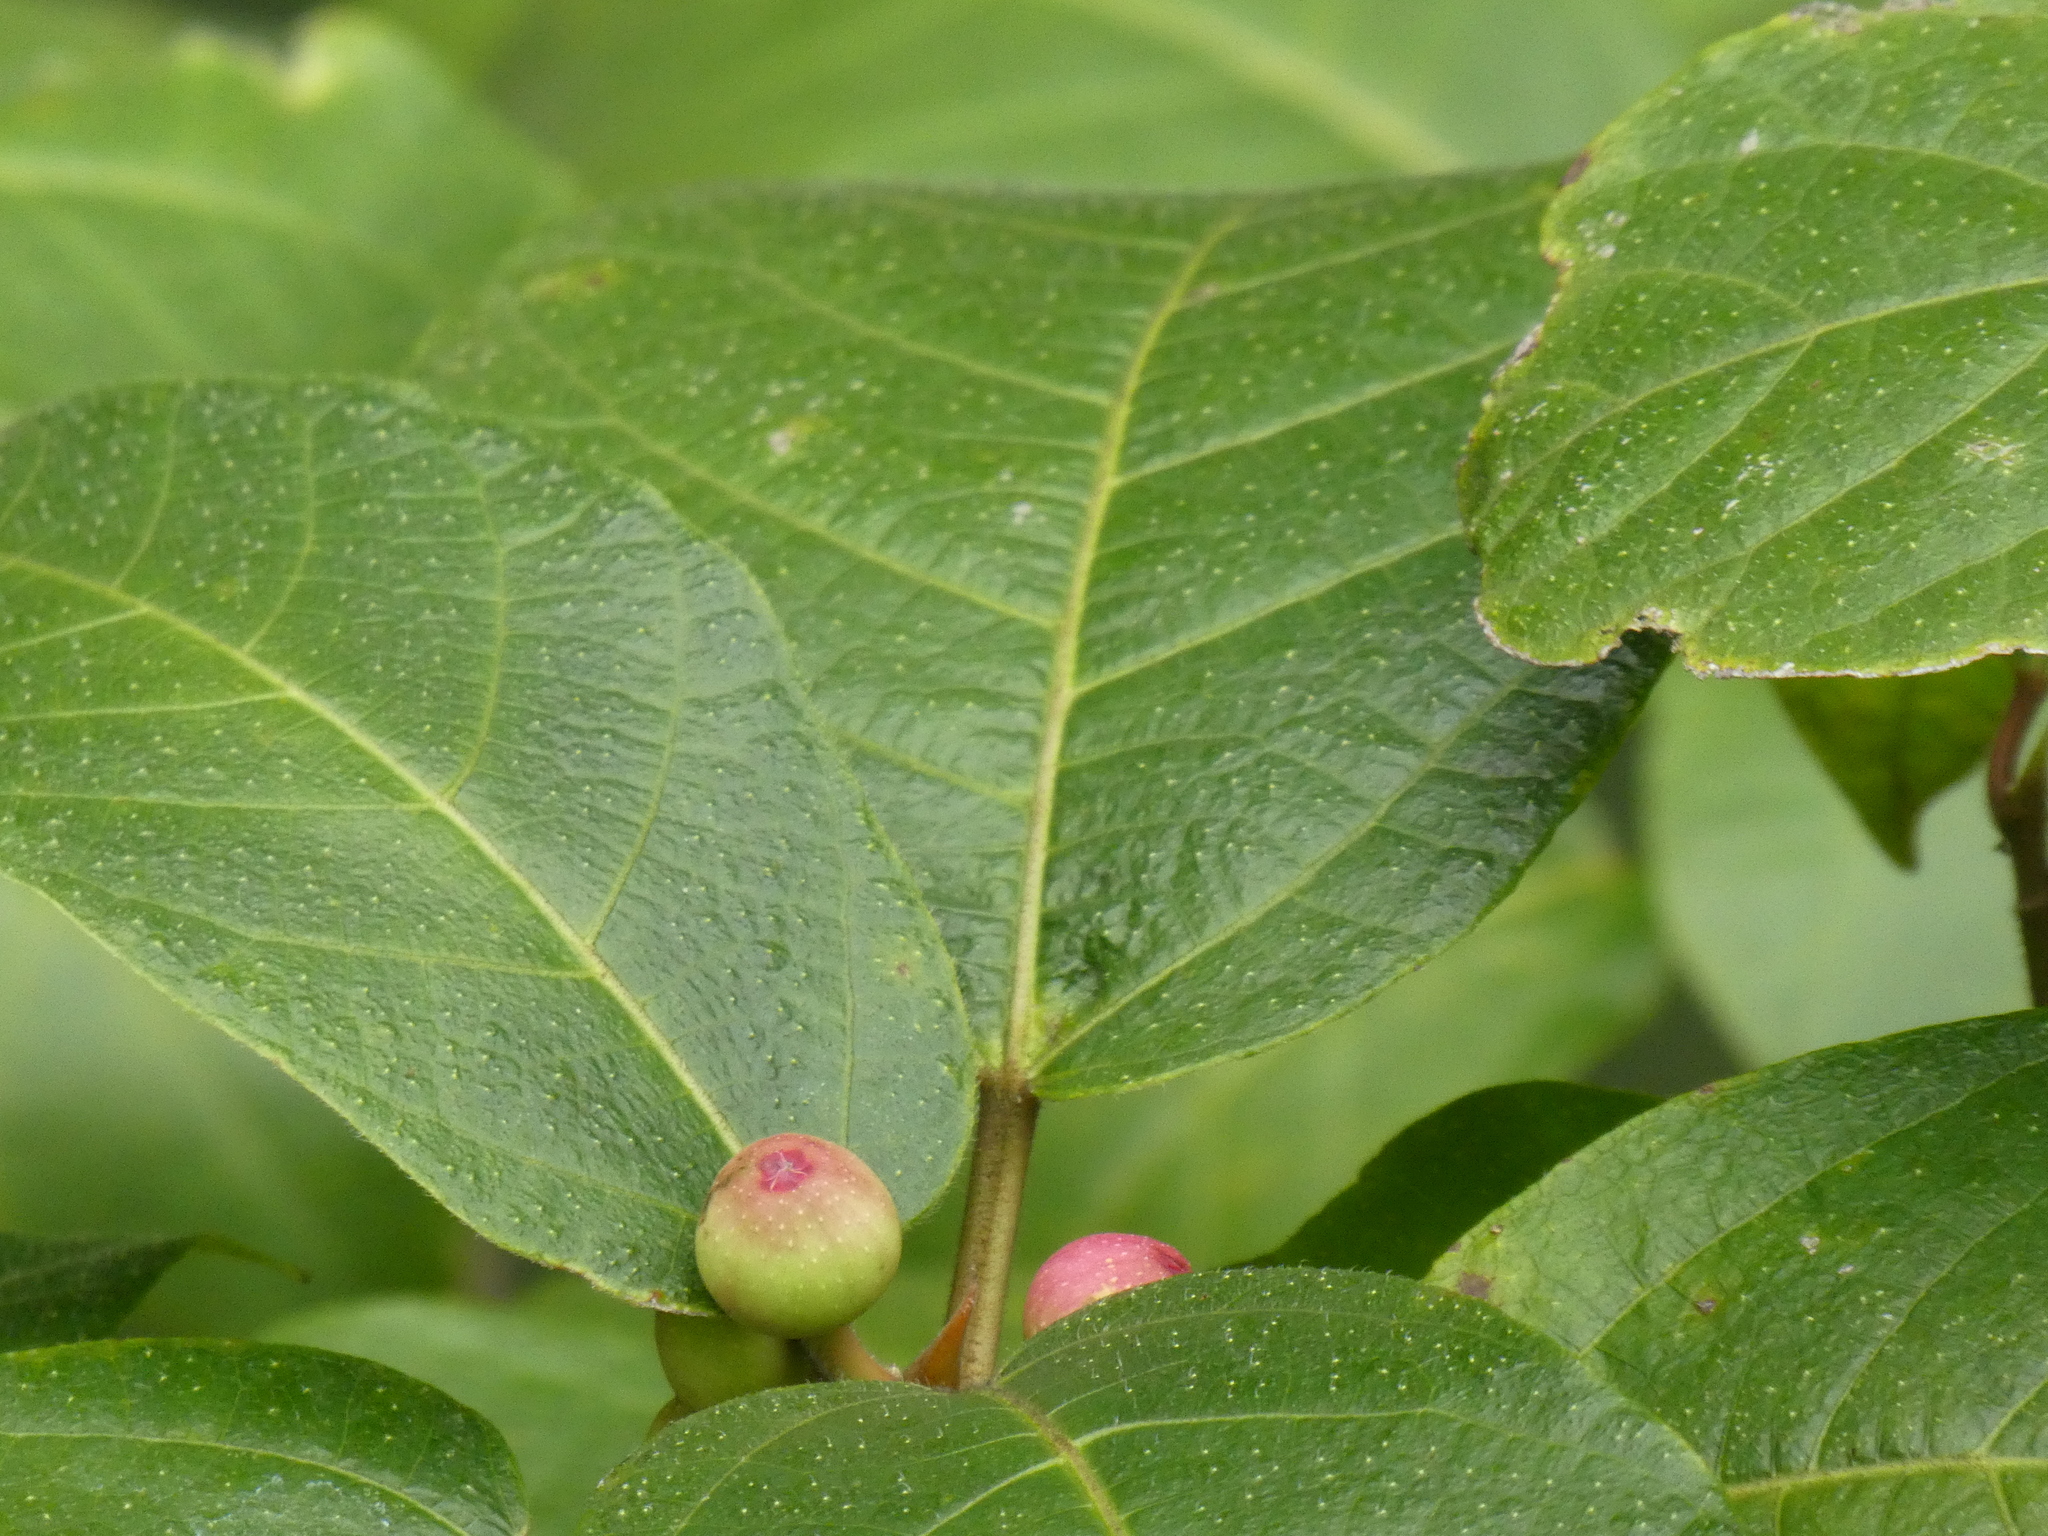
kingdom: Plantae
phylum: Tracheophyta
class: Magnoliopsida
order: Rosales
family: Moraceae
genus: Ficus
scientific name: Ficus erecta
